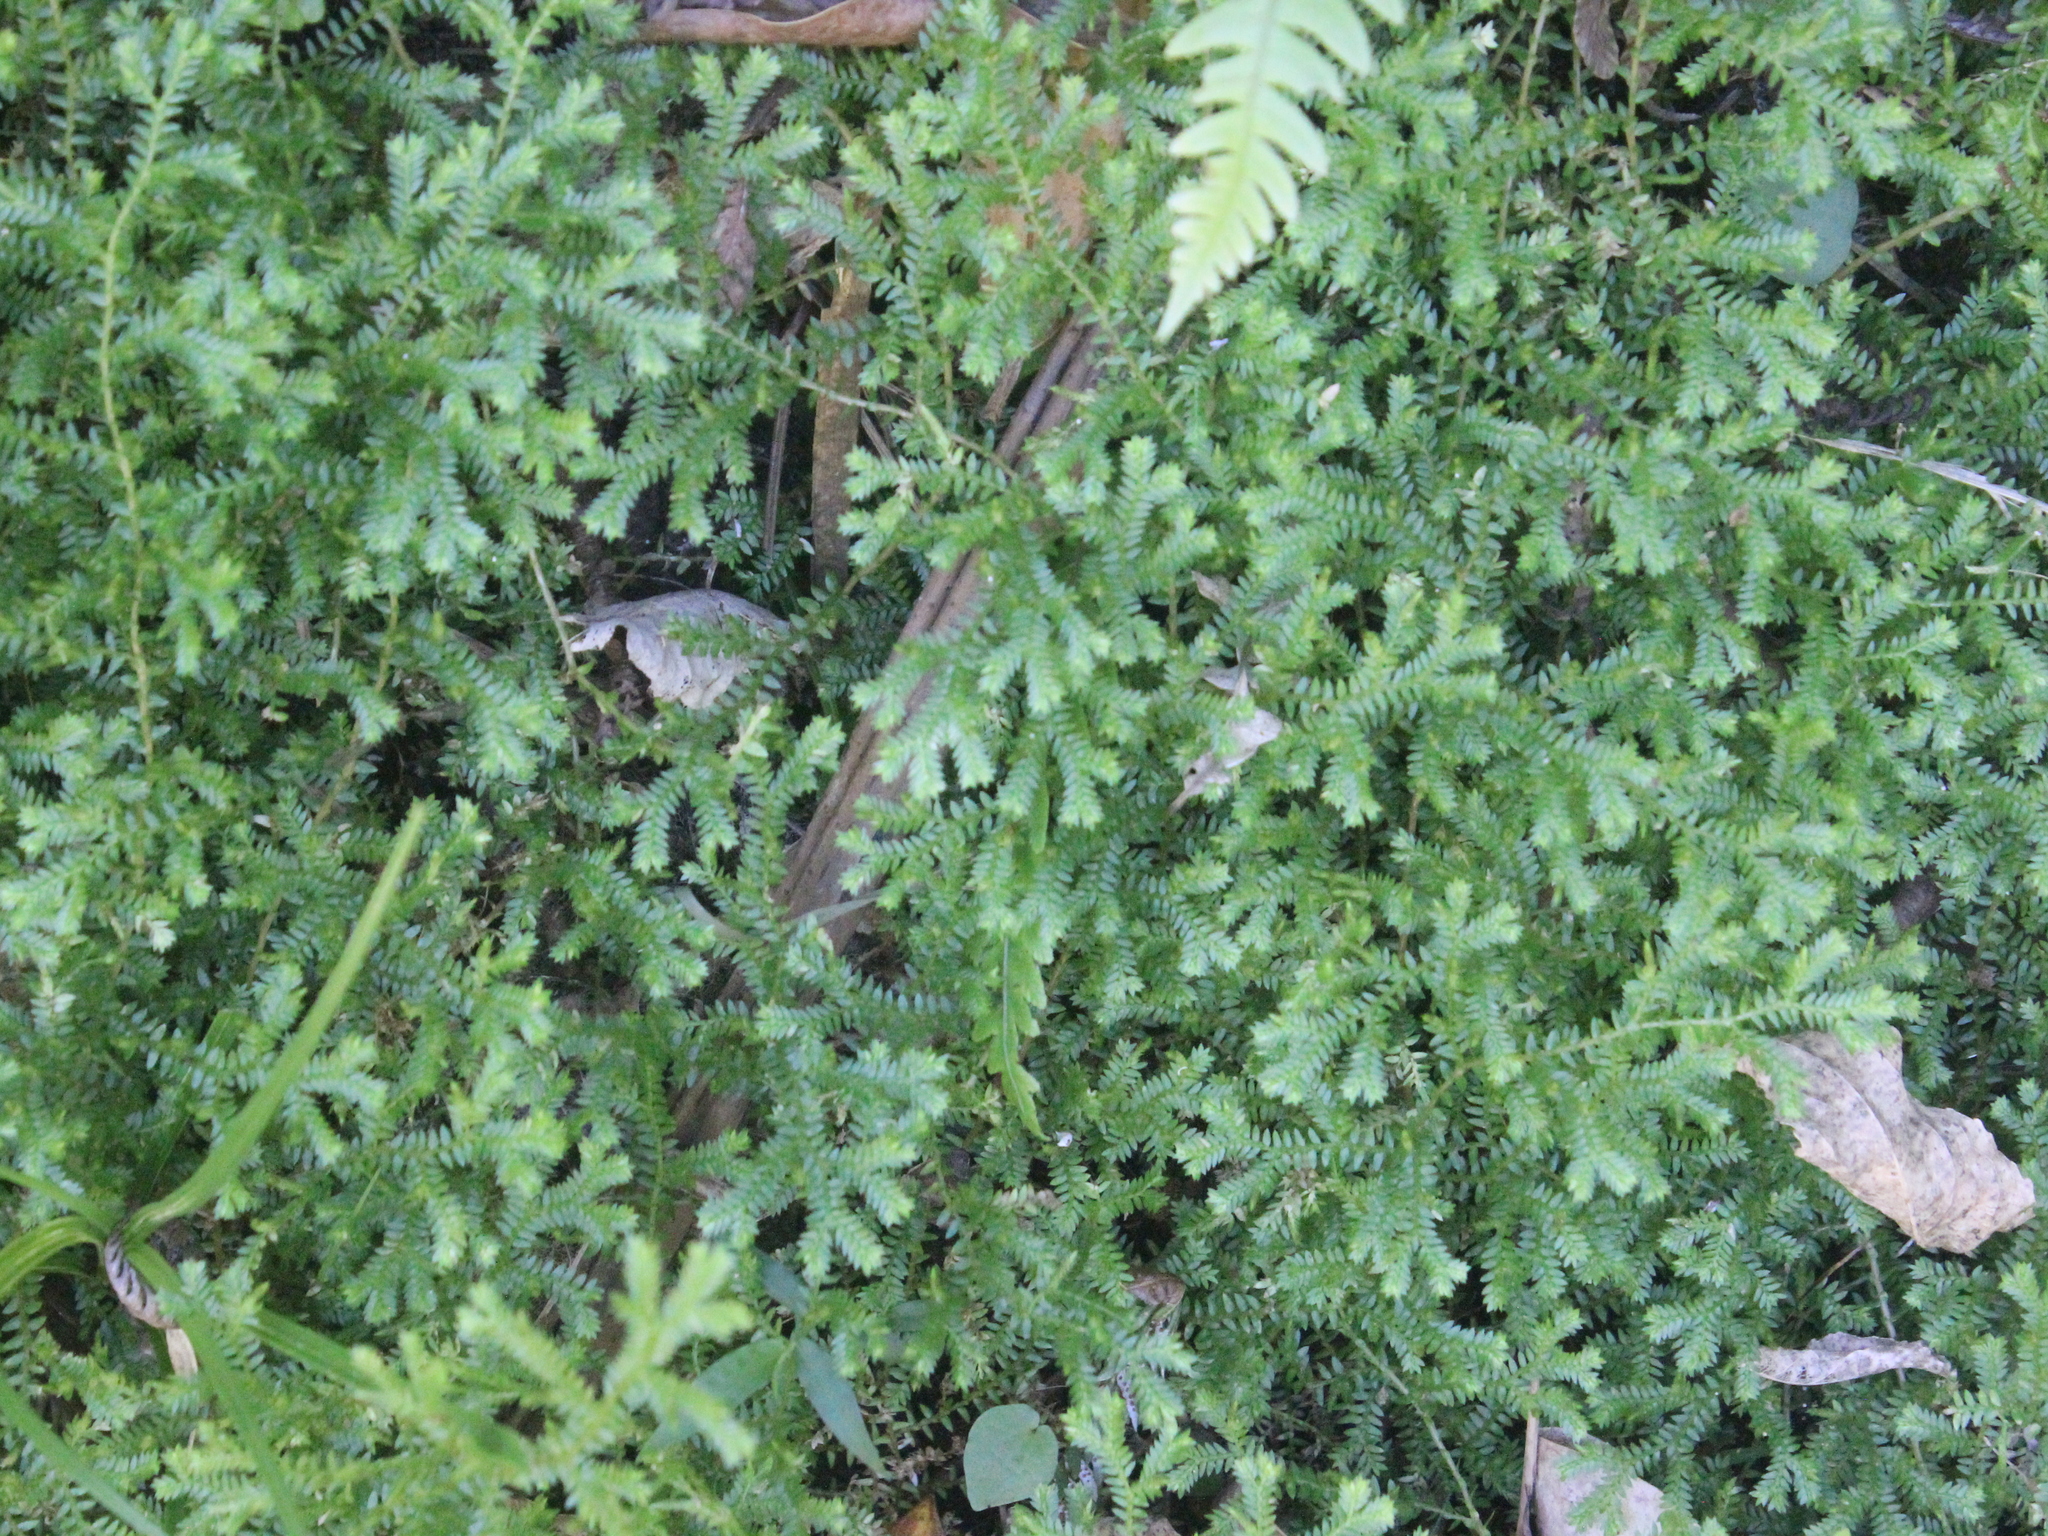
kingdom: Plantae
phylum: Tracheophyta
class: Lycopodiopsida
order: Selaginellales
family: Selaginellaceae
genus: Selaginella
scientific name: Selaginella kraussiana
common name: Krauss' spikemoss
